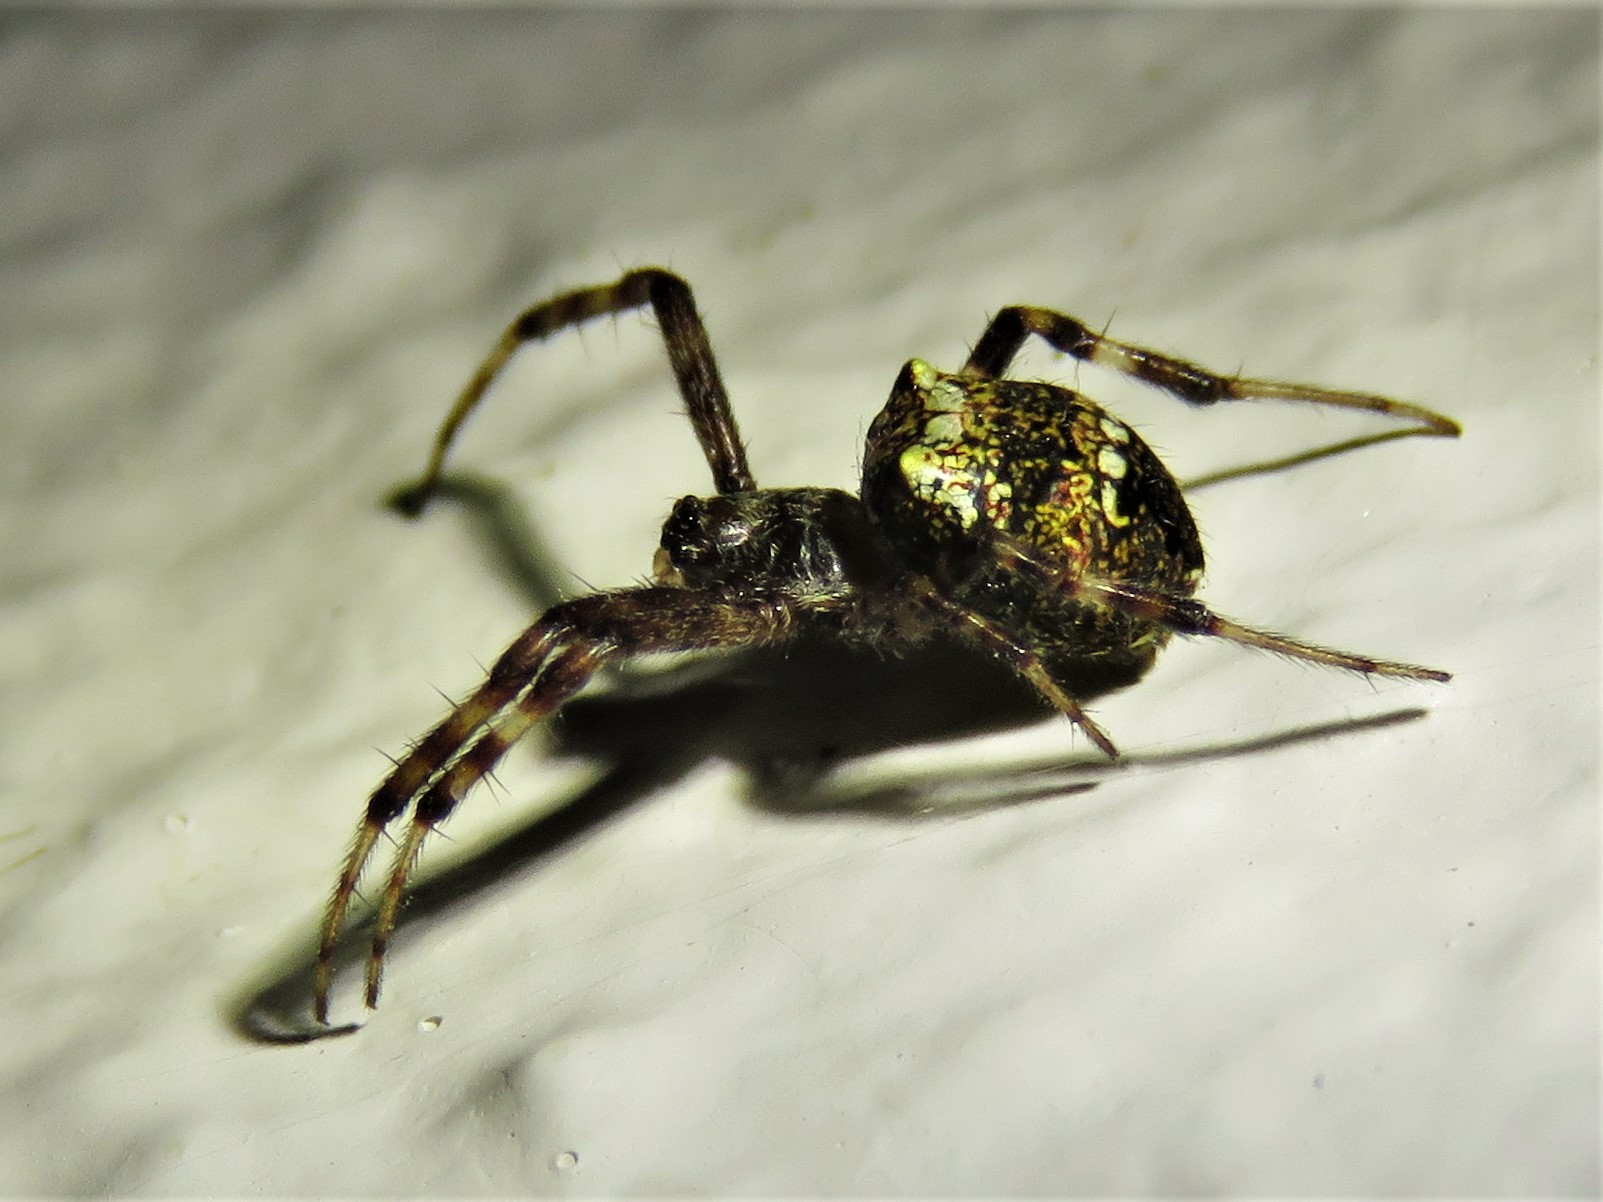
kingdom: Animalia
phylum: Arthropoda
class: Arachnida
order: Araneae
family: Araneidae
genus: Gea
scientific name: Gea heptagon
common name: Orb weavers
